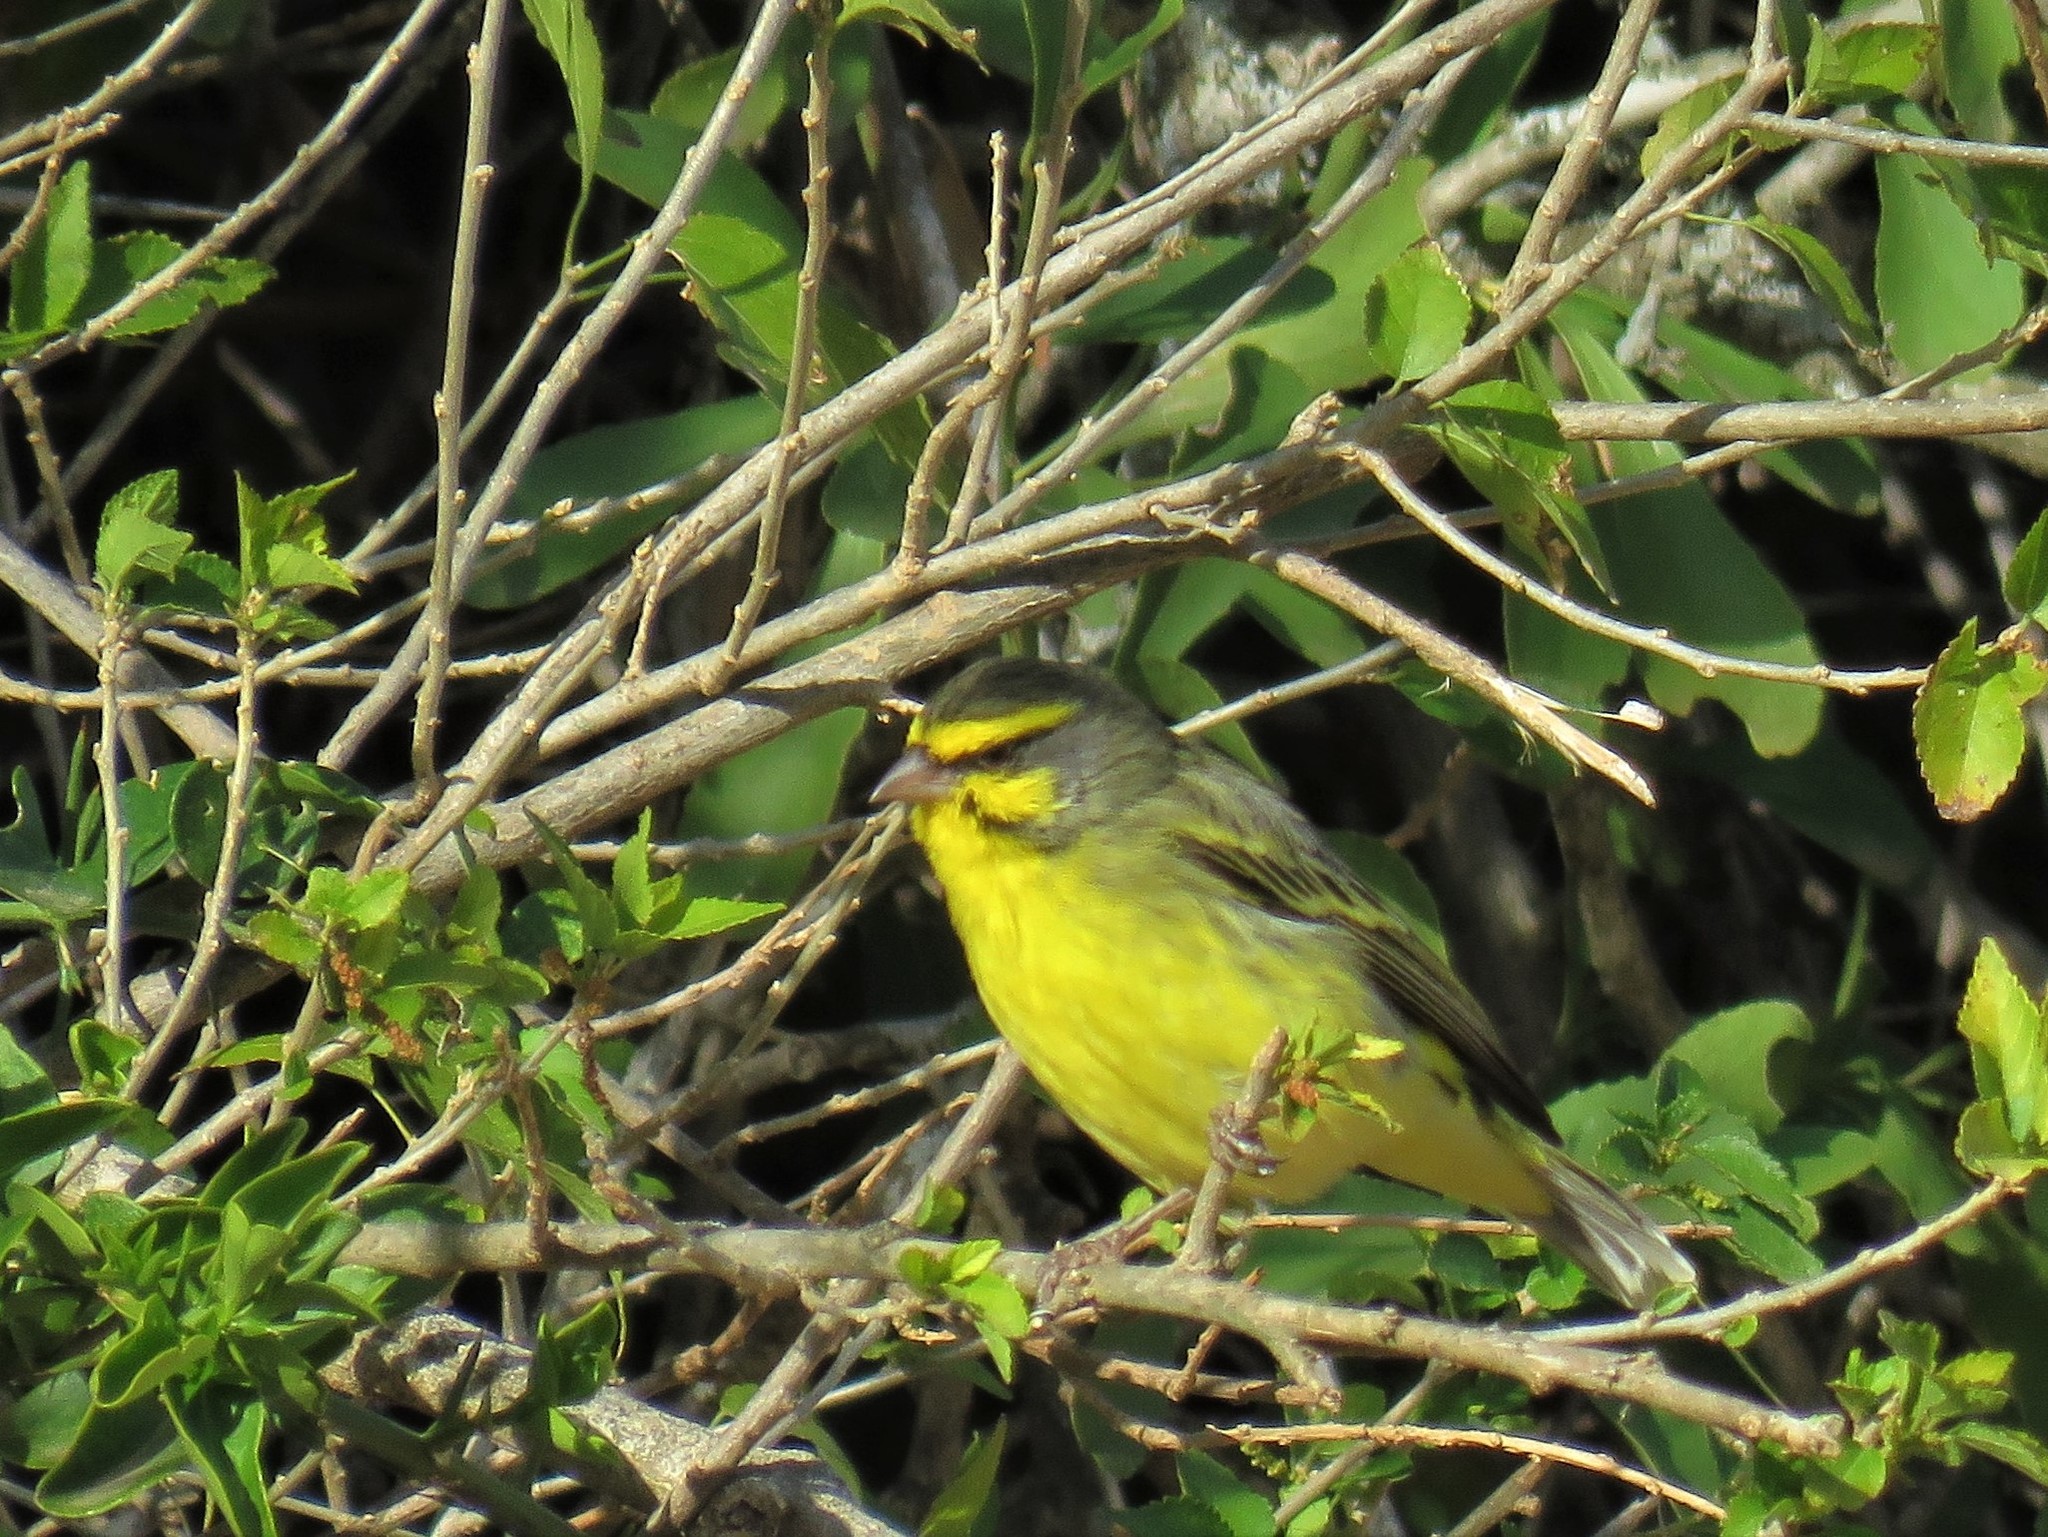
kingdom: Animalia
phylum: Chordata
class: Aves
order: Passeriformes
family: Fringillidae
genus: Crithagra
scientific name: Crithagra mozambica
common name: Yellow-fronted canary
